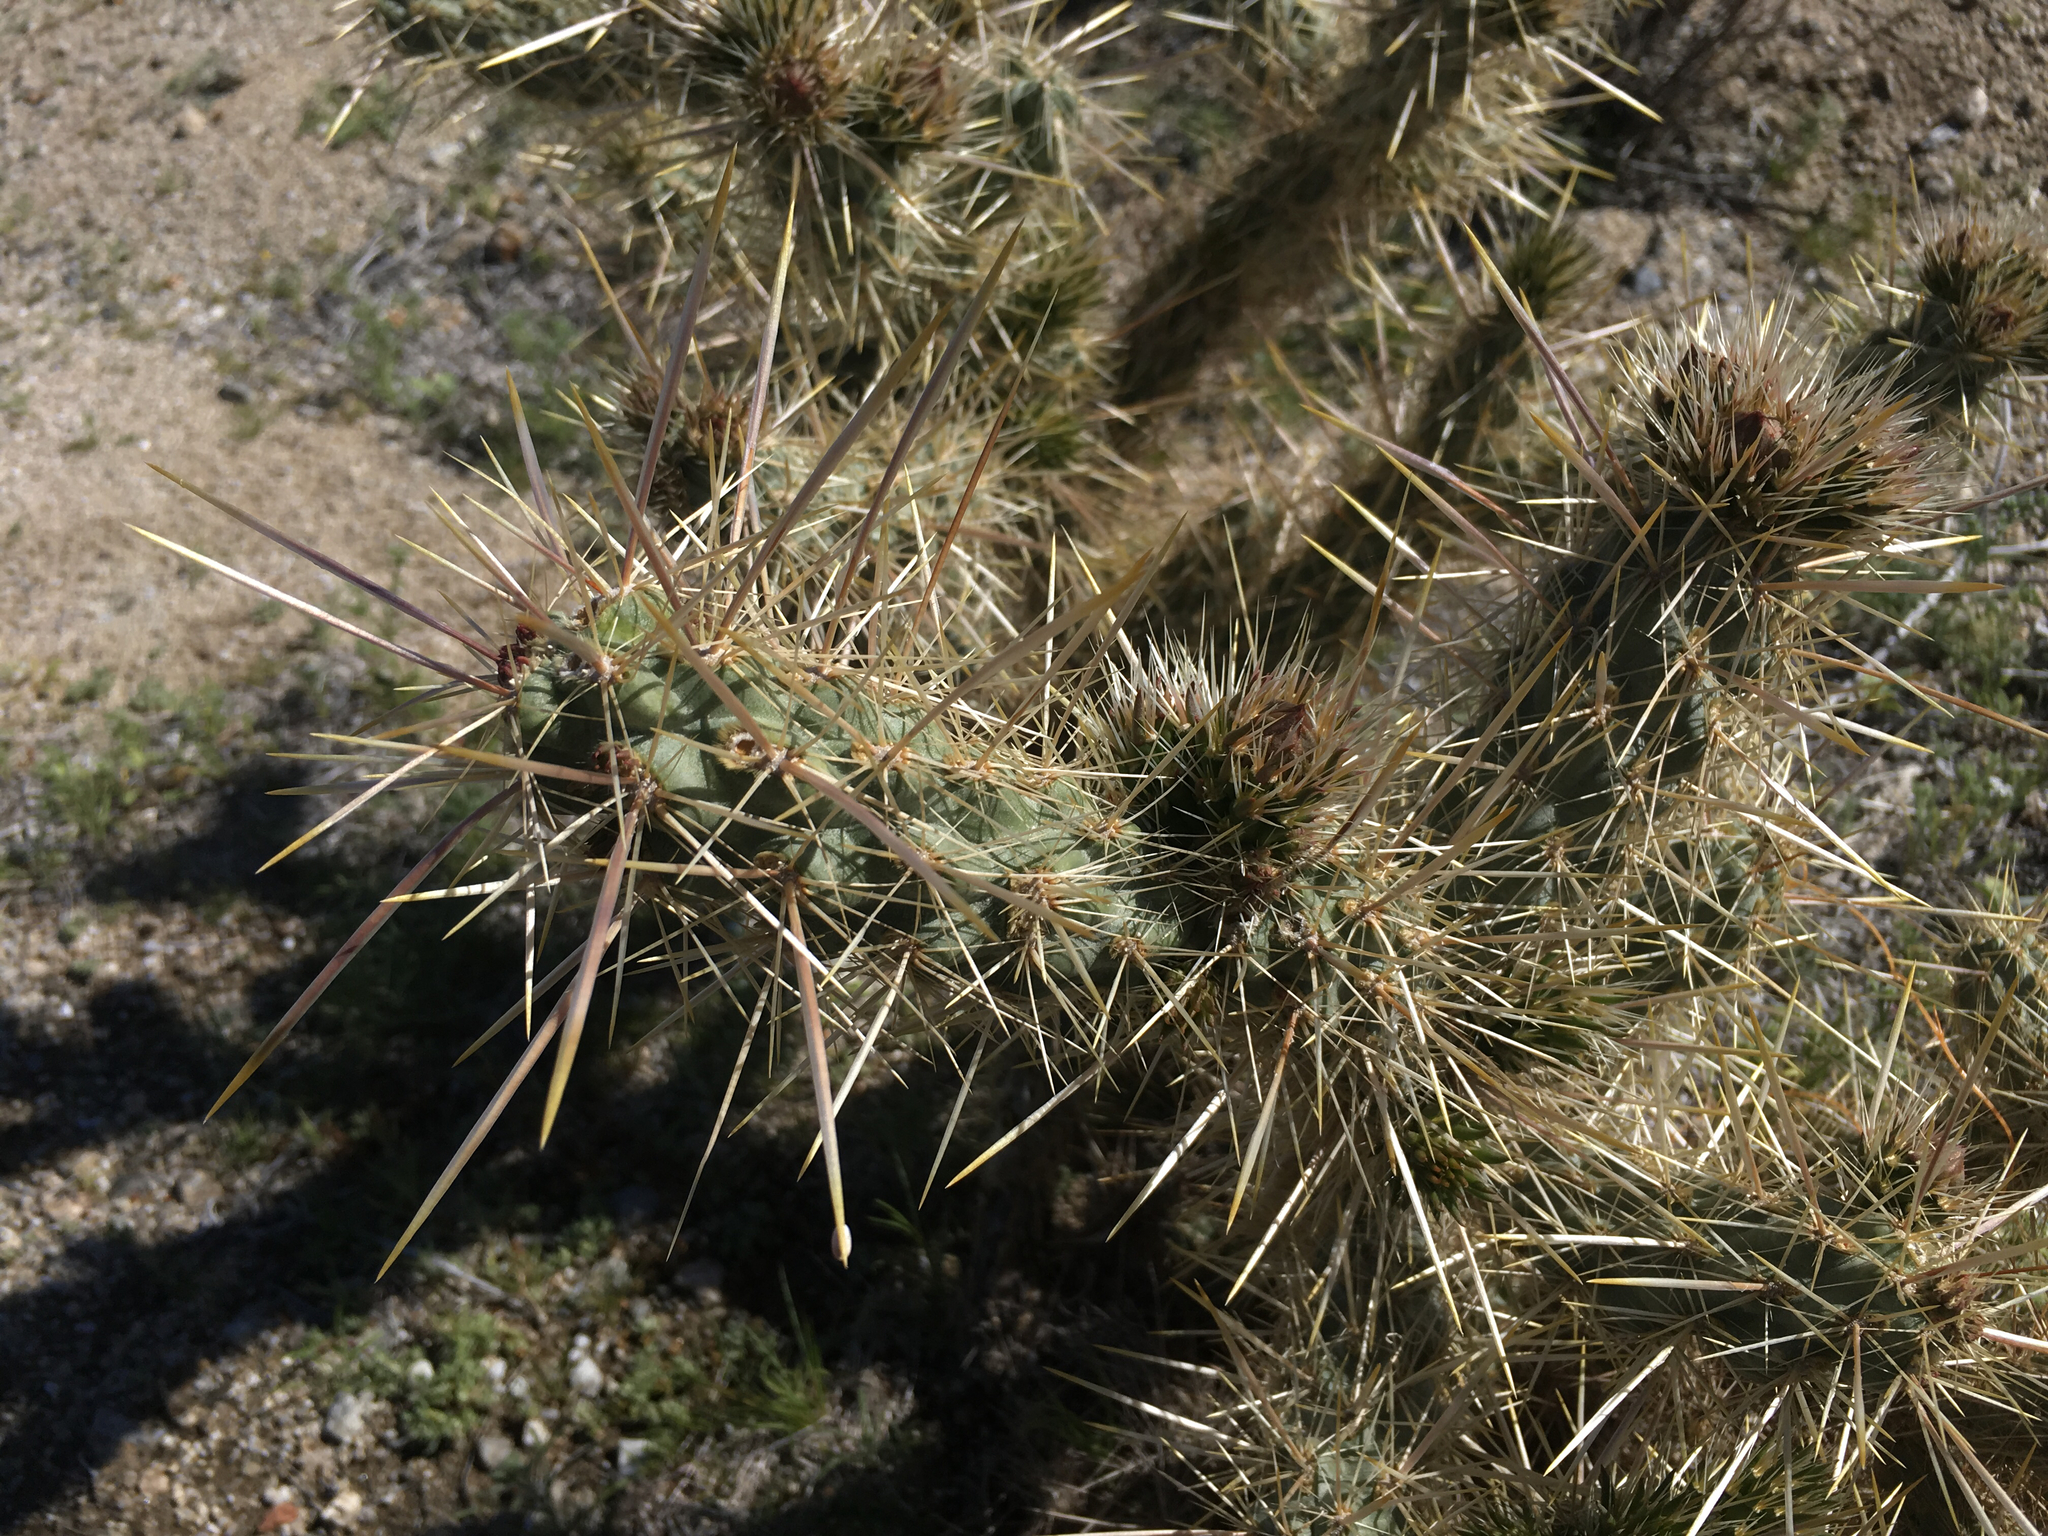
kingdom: Plantae
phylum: Tracheophyta
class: Magnoliopsida
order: Caryophyllales
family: Cactaceae
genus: Cylindropuntia
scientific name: Cylindropuntia echinocarpa
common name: Ground cholla
